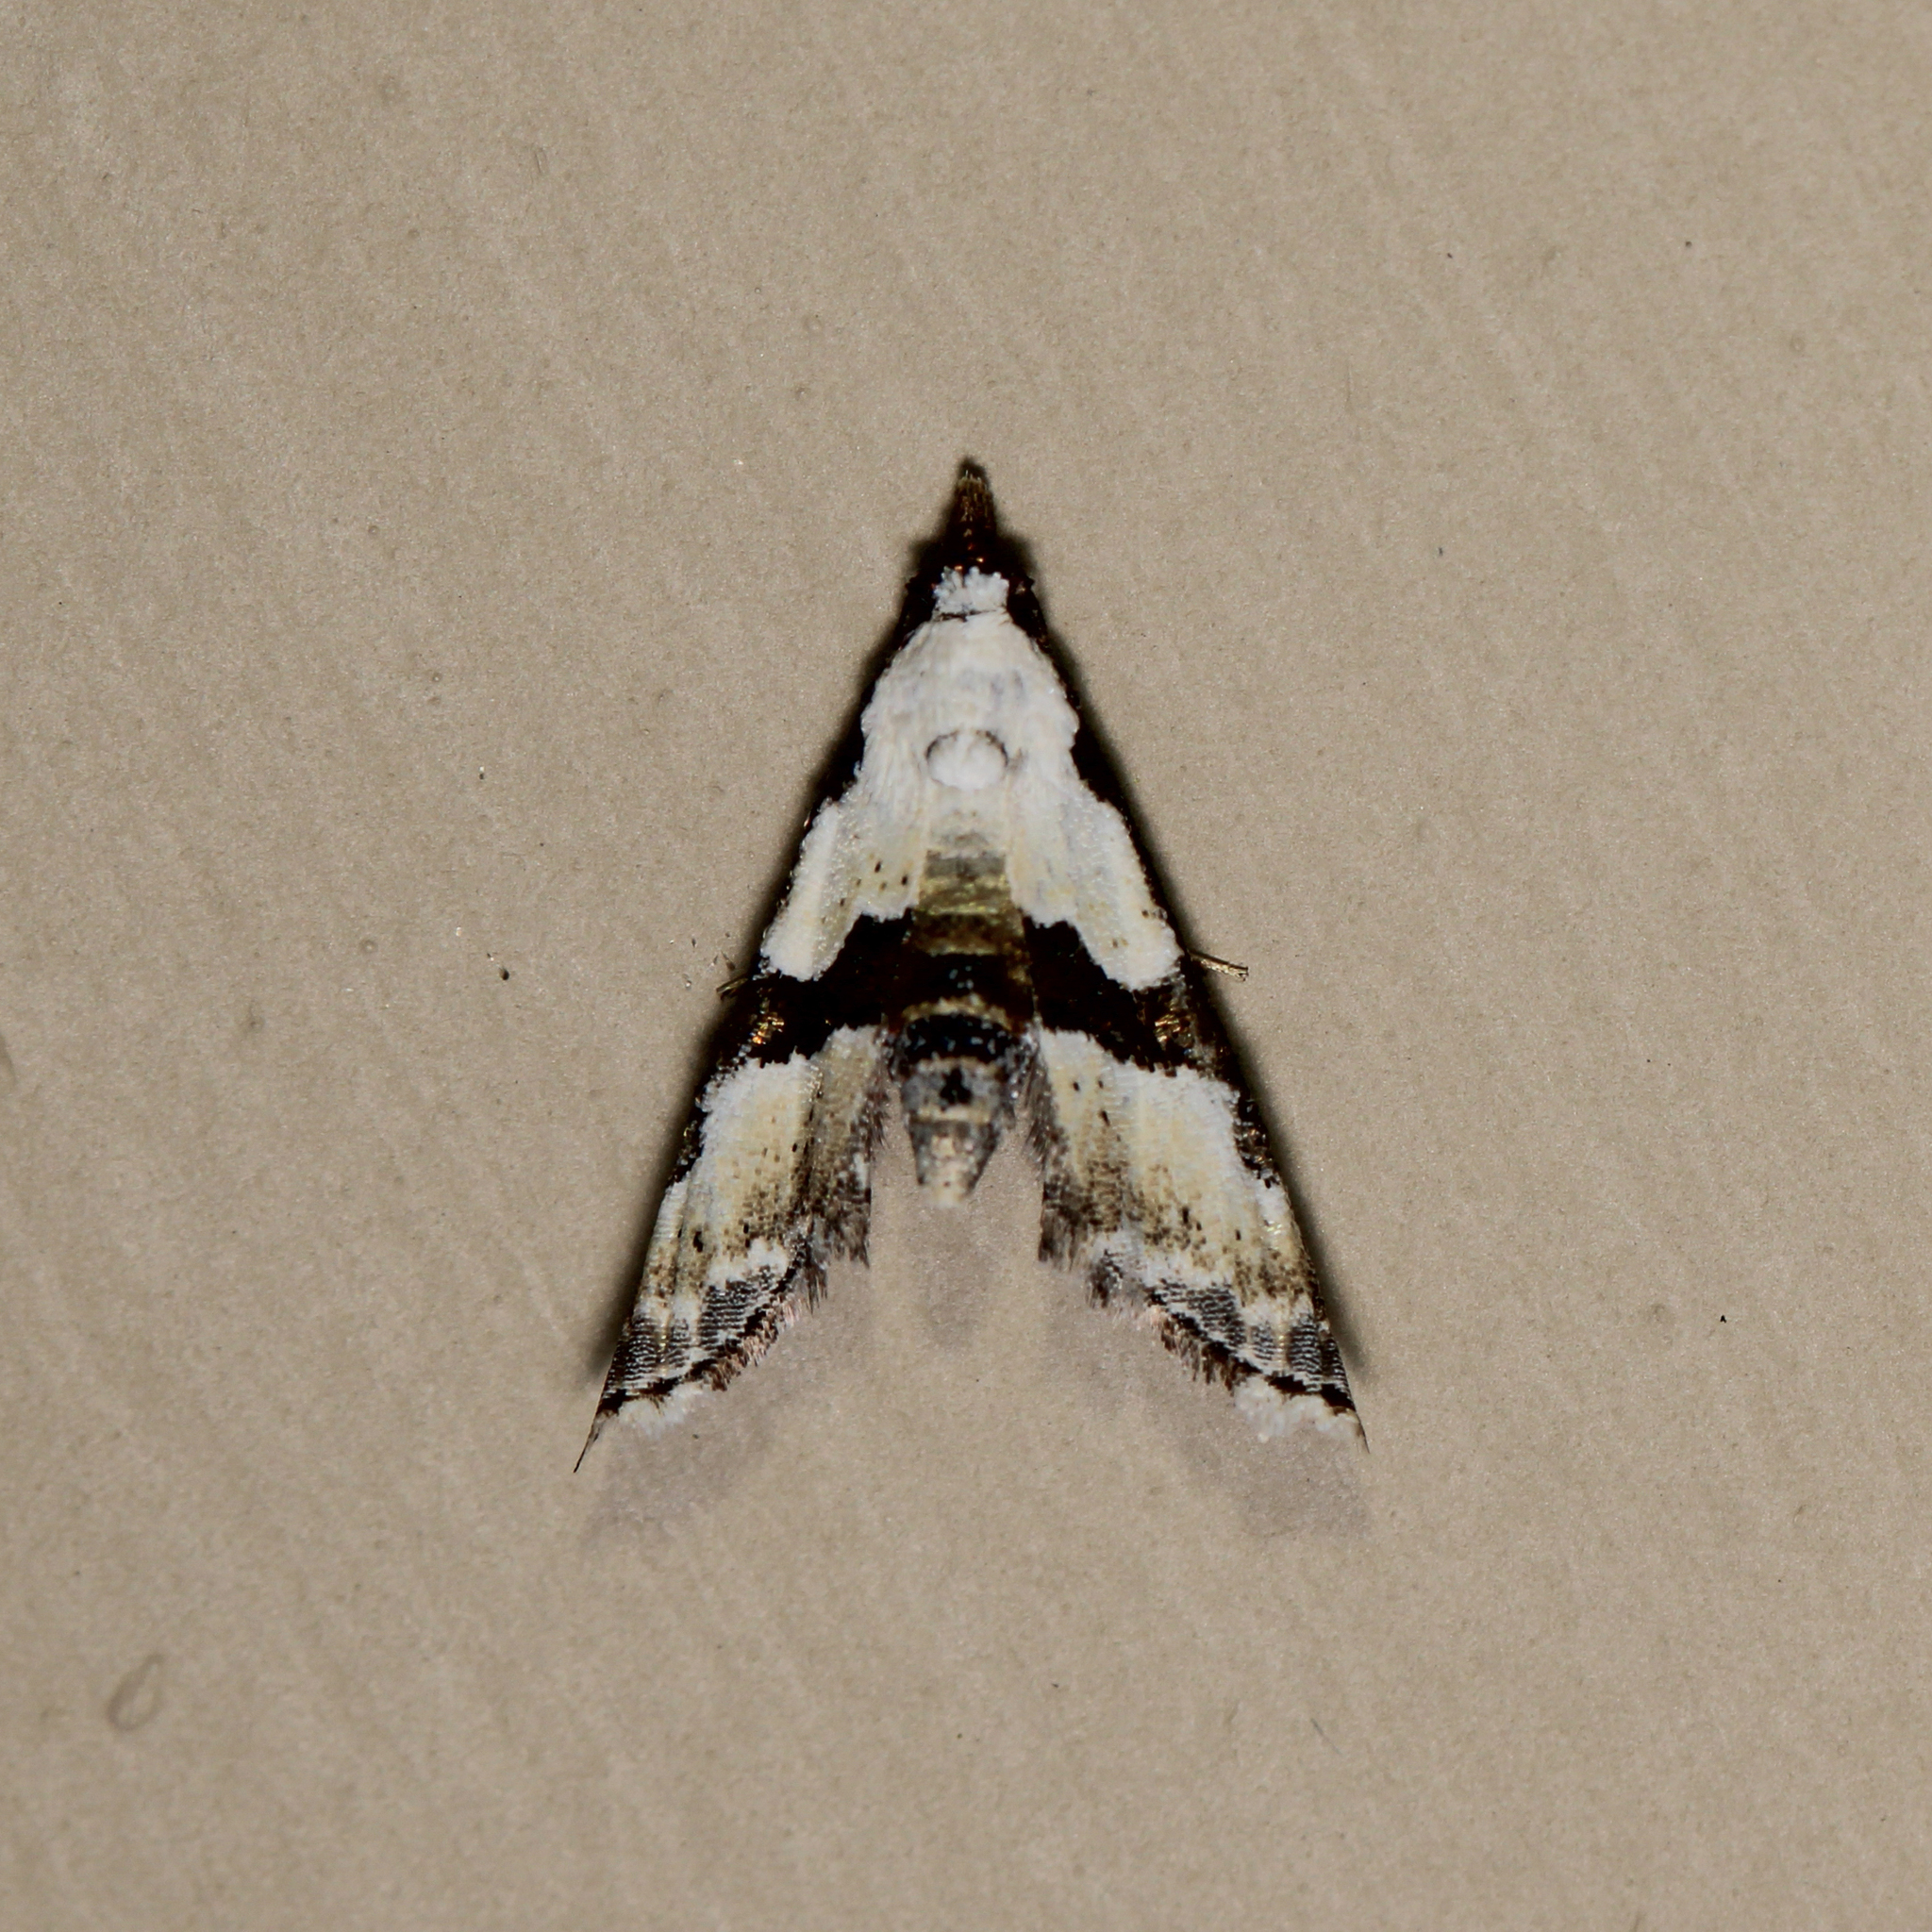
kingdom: Animalia
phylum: Arthropoda
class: Insecta
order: Lepidoptera
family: Noctuidae
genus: Nigetia
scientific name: Nigetia formosalis
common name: Thin-winged owlet
